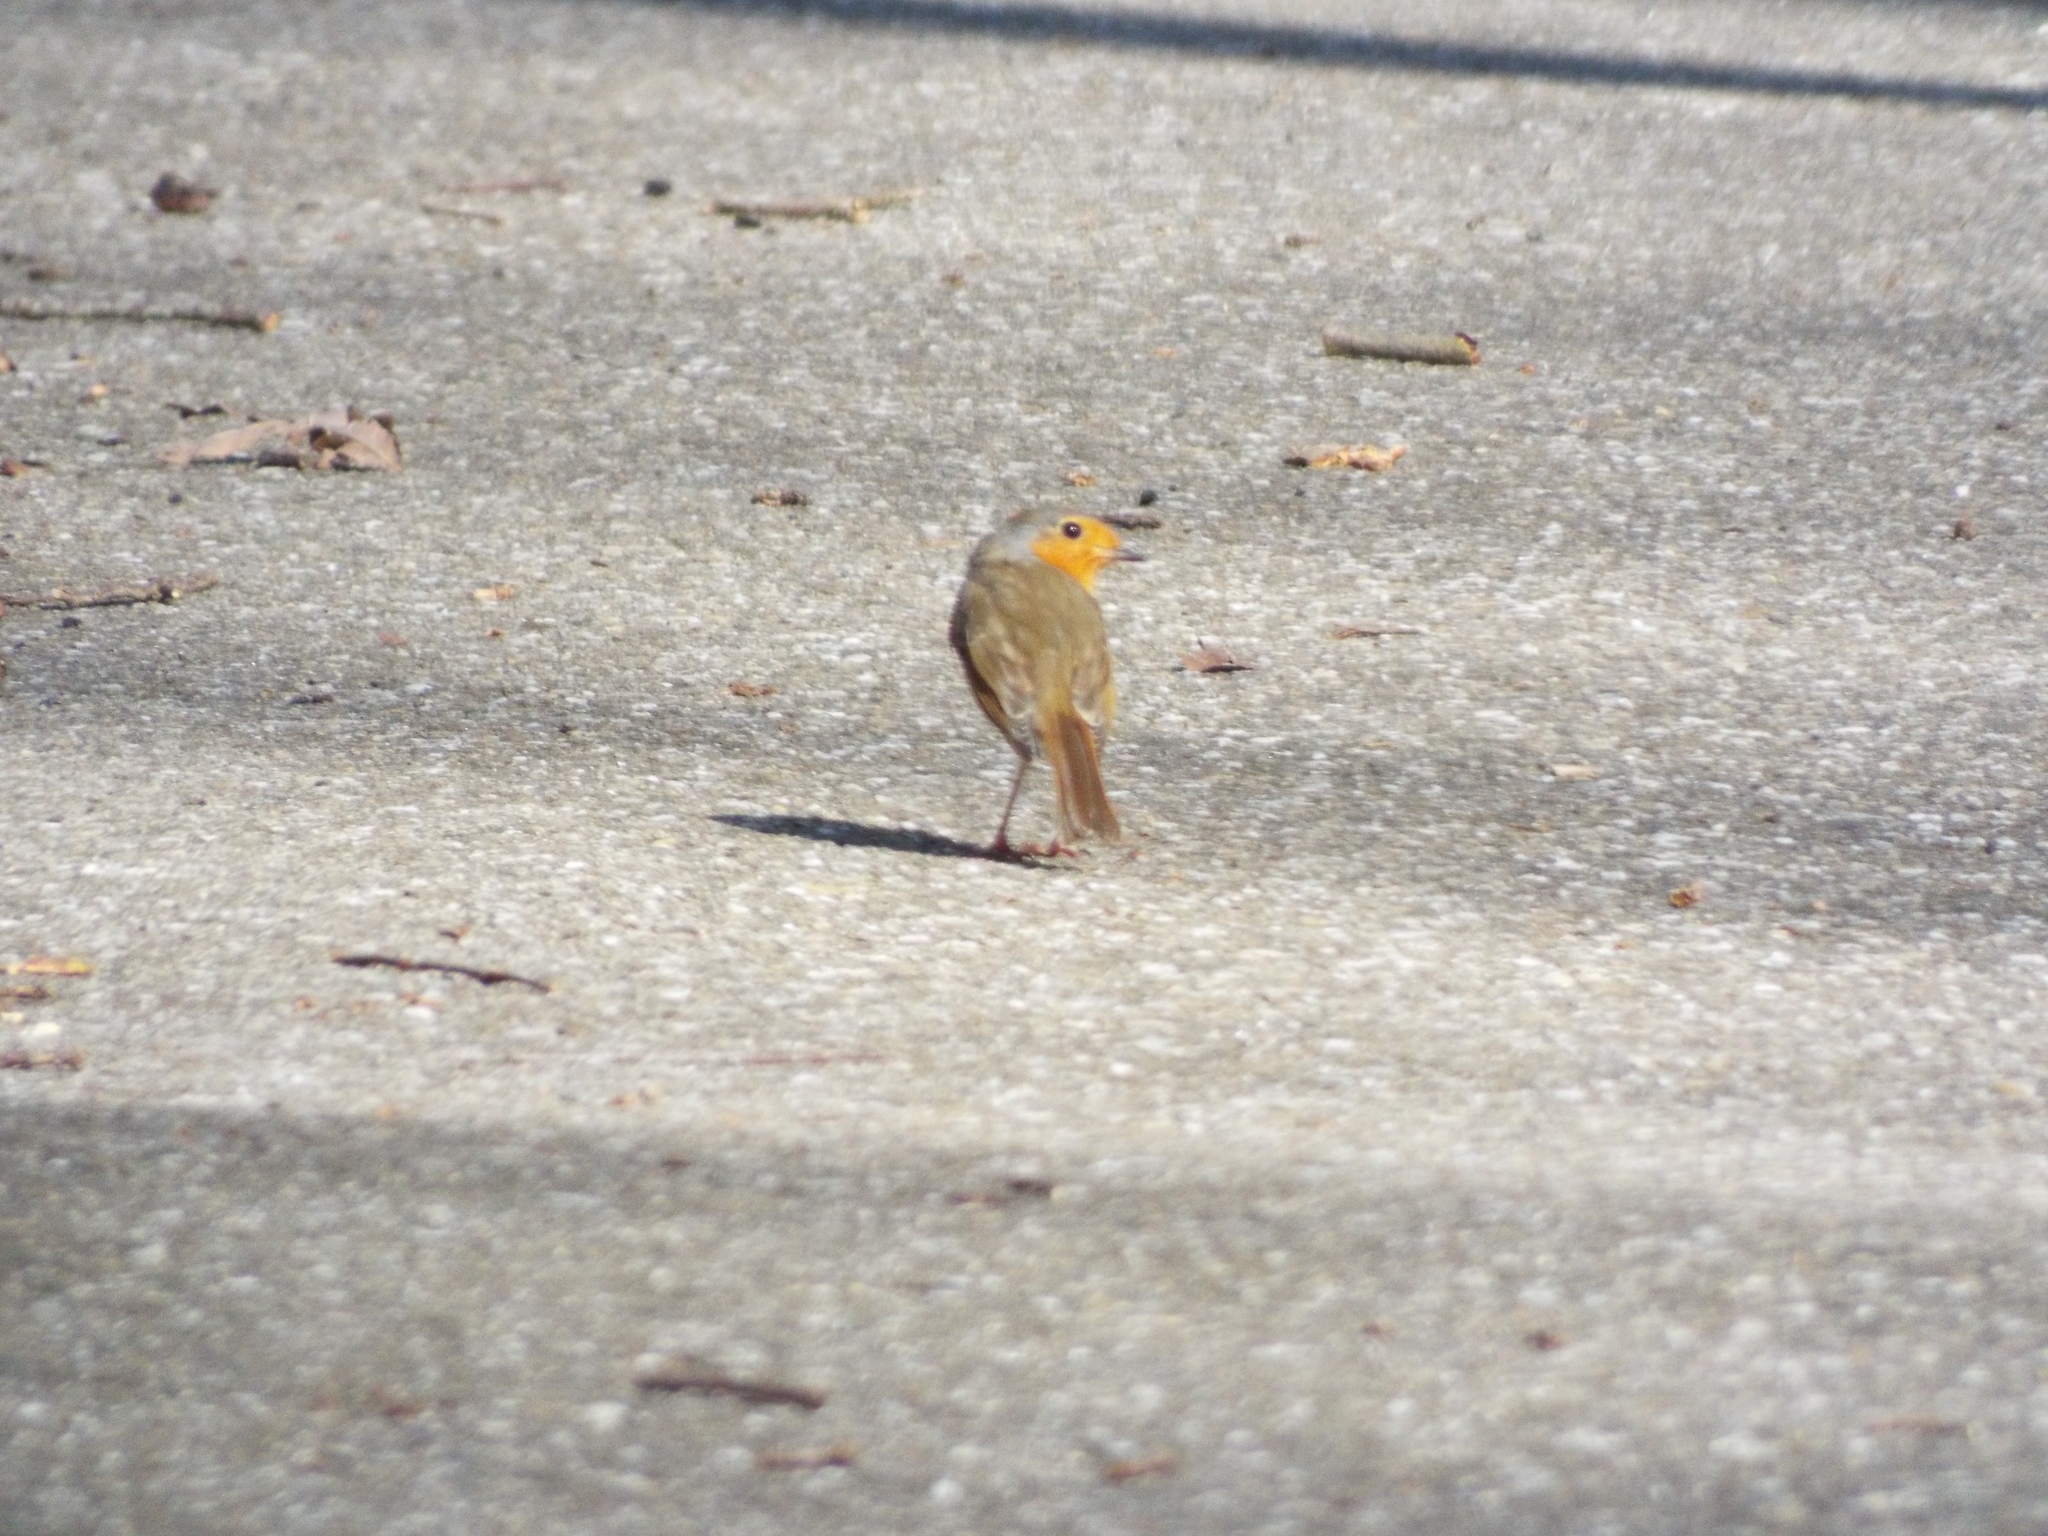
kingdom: Animalia
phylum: Chordata
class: Aves
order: Passeriformes
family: Muscicapidae
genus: Erithacus
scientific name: Erithacus rubecula
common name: European robin
